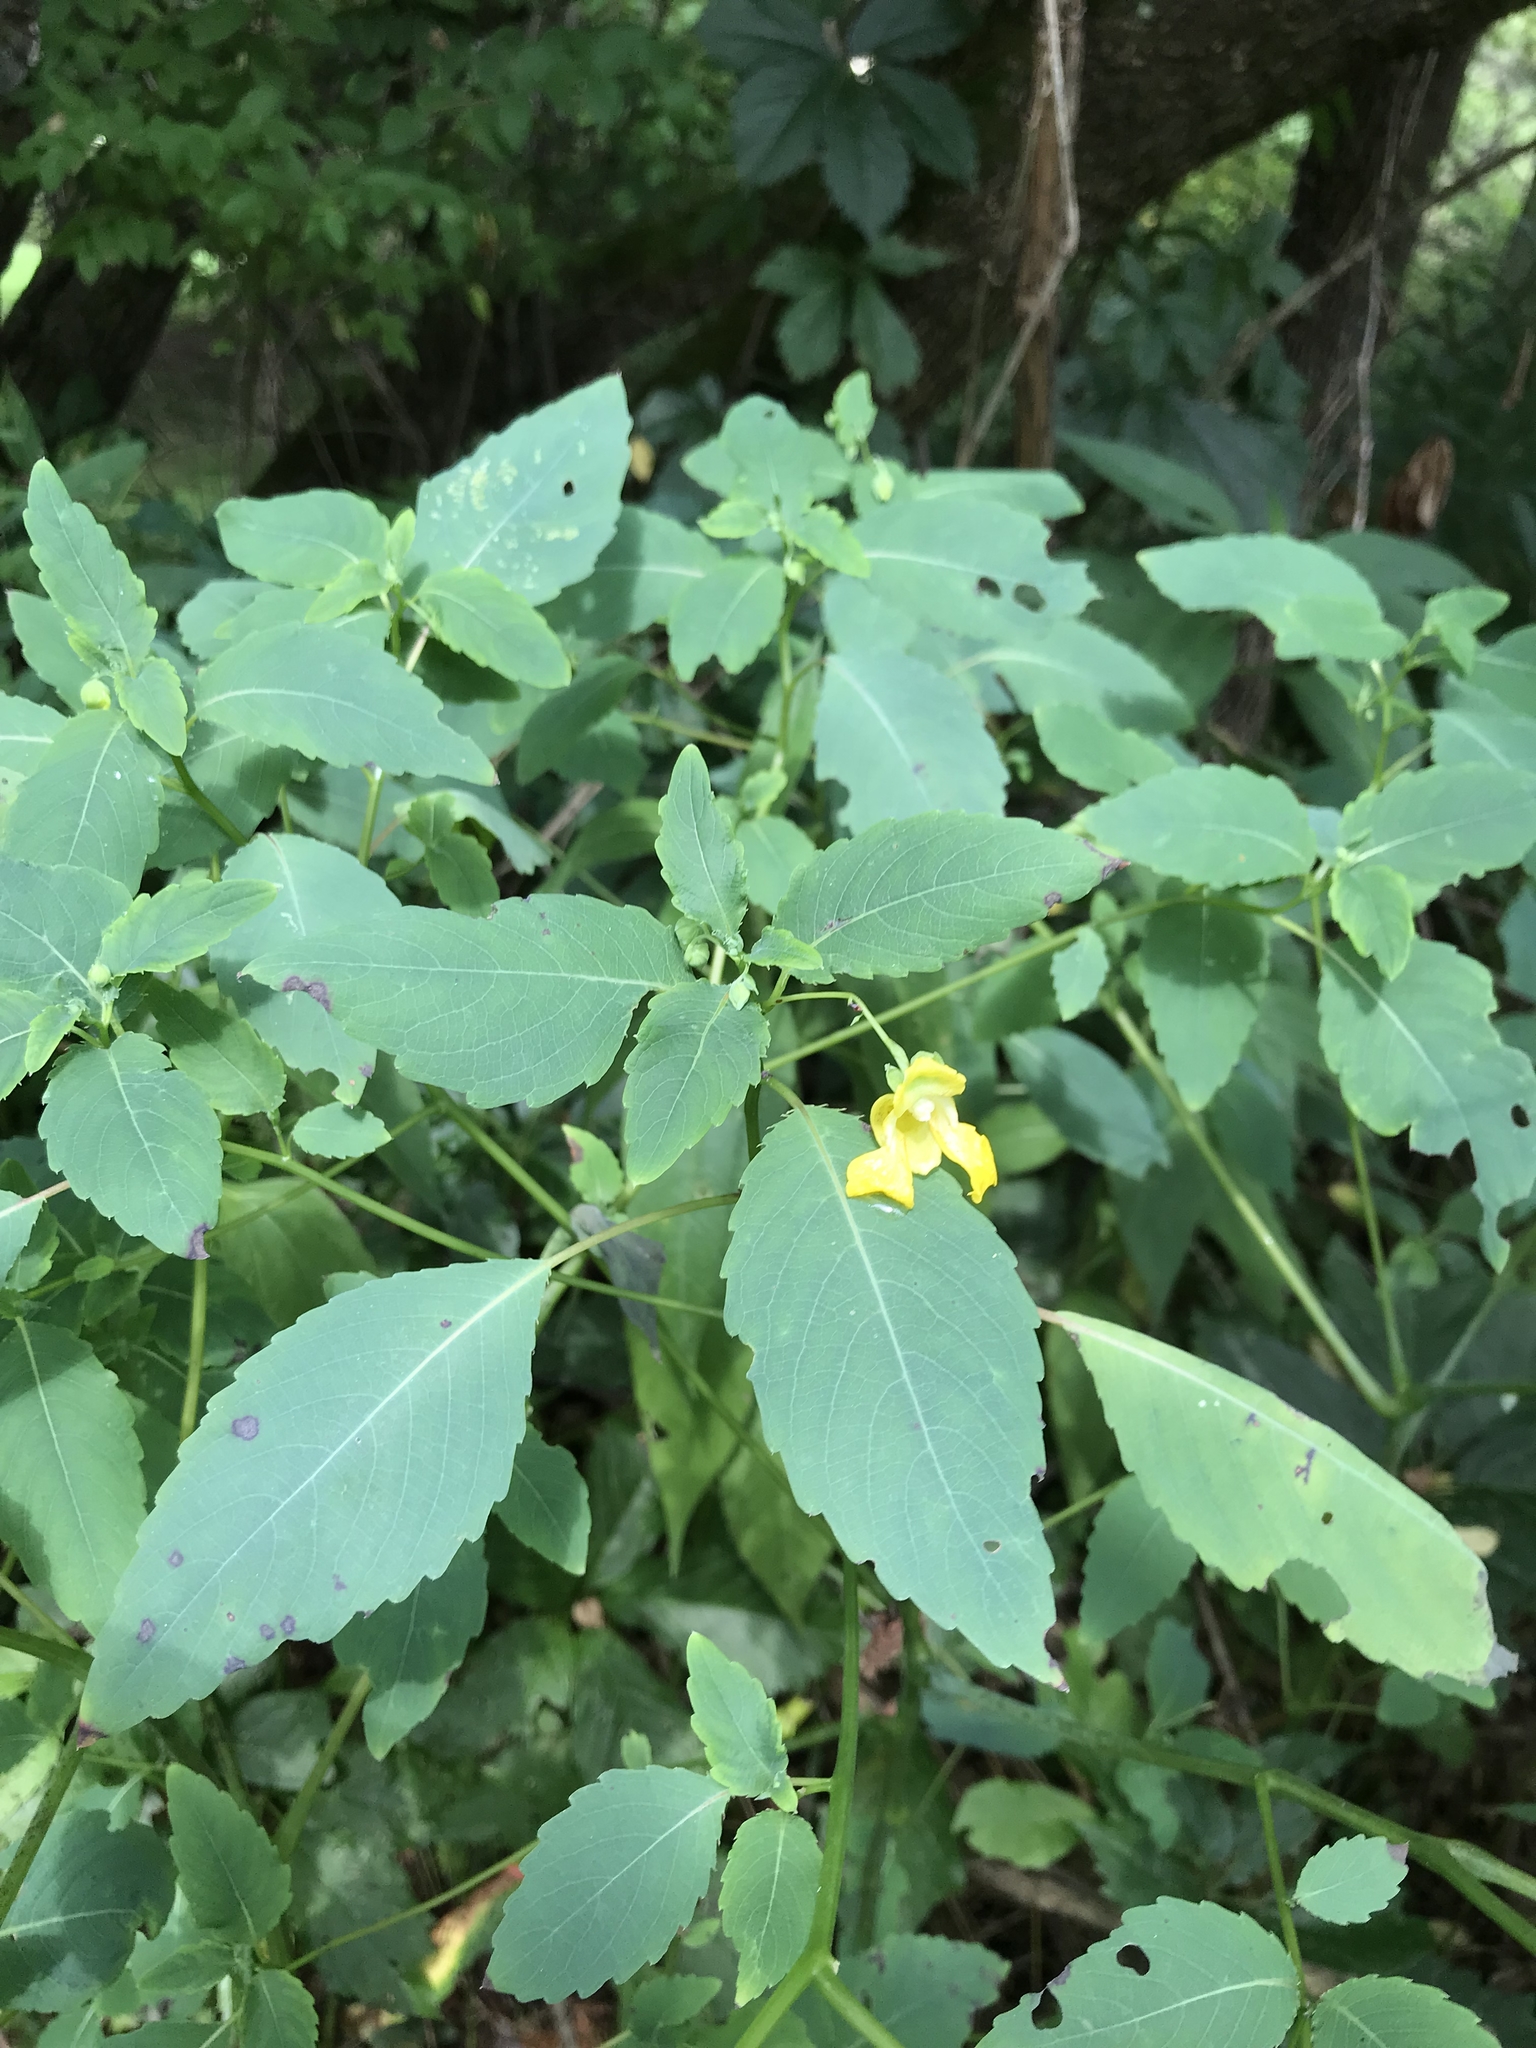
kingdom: Plantae
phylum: Tracheophyta
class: Magnoliopsida
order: Ericales
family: Balsaminaceae
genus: Impatiens
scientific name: Impatiens pallida
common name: Pale snapweed
